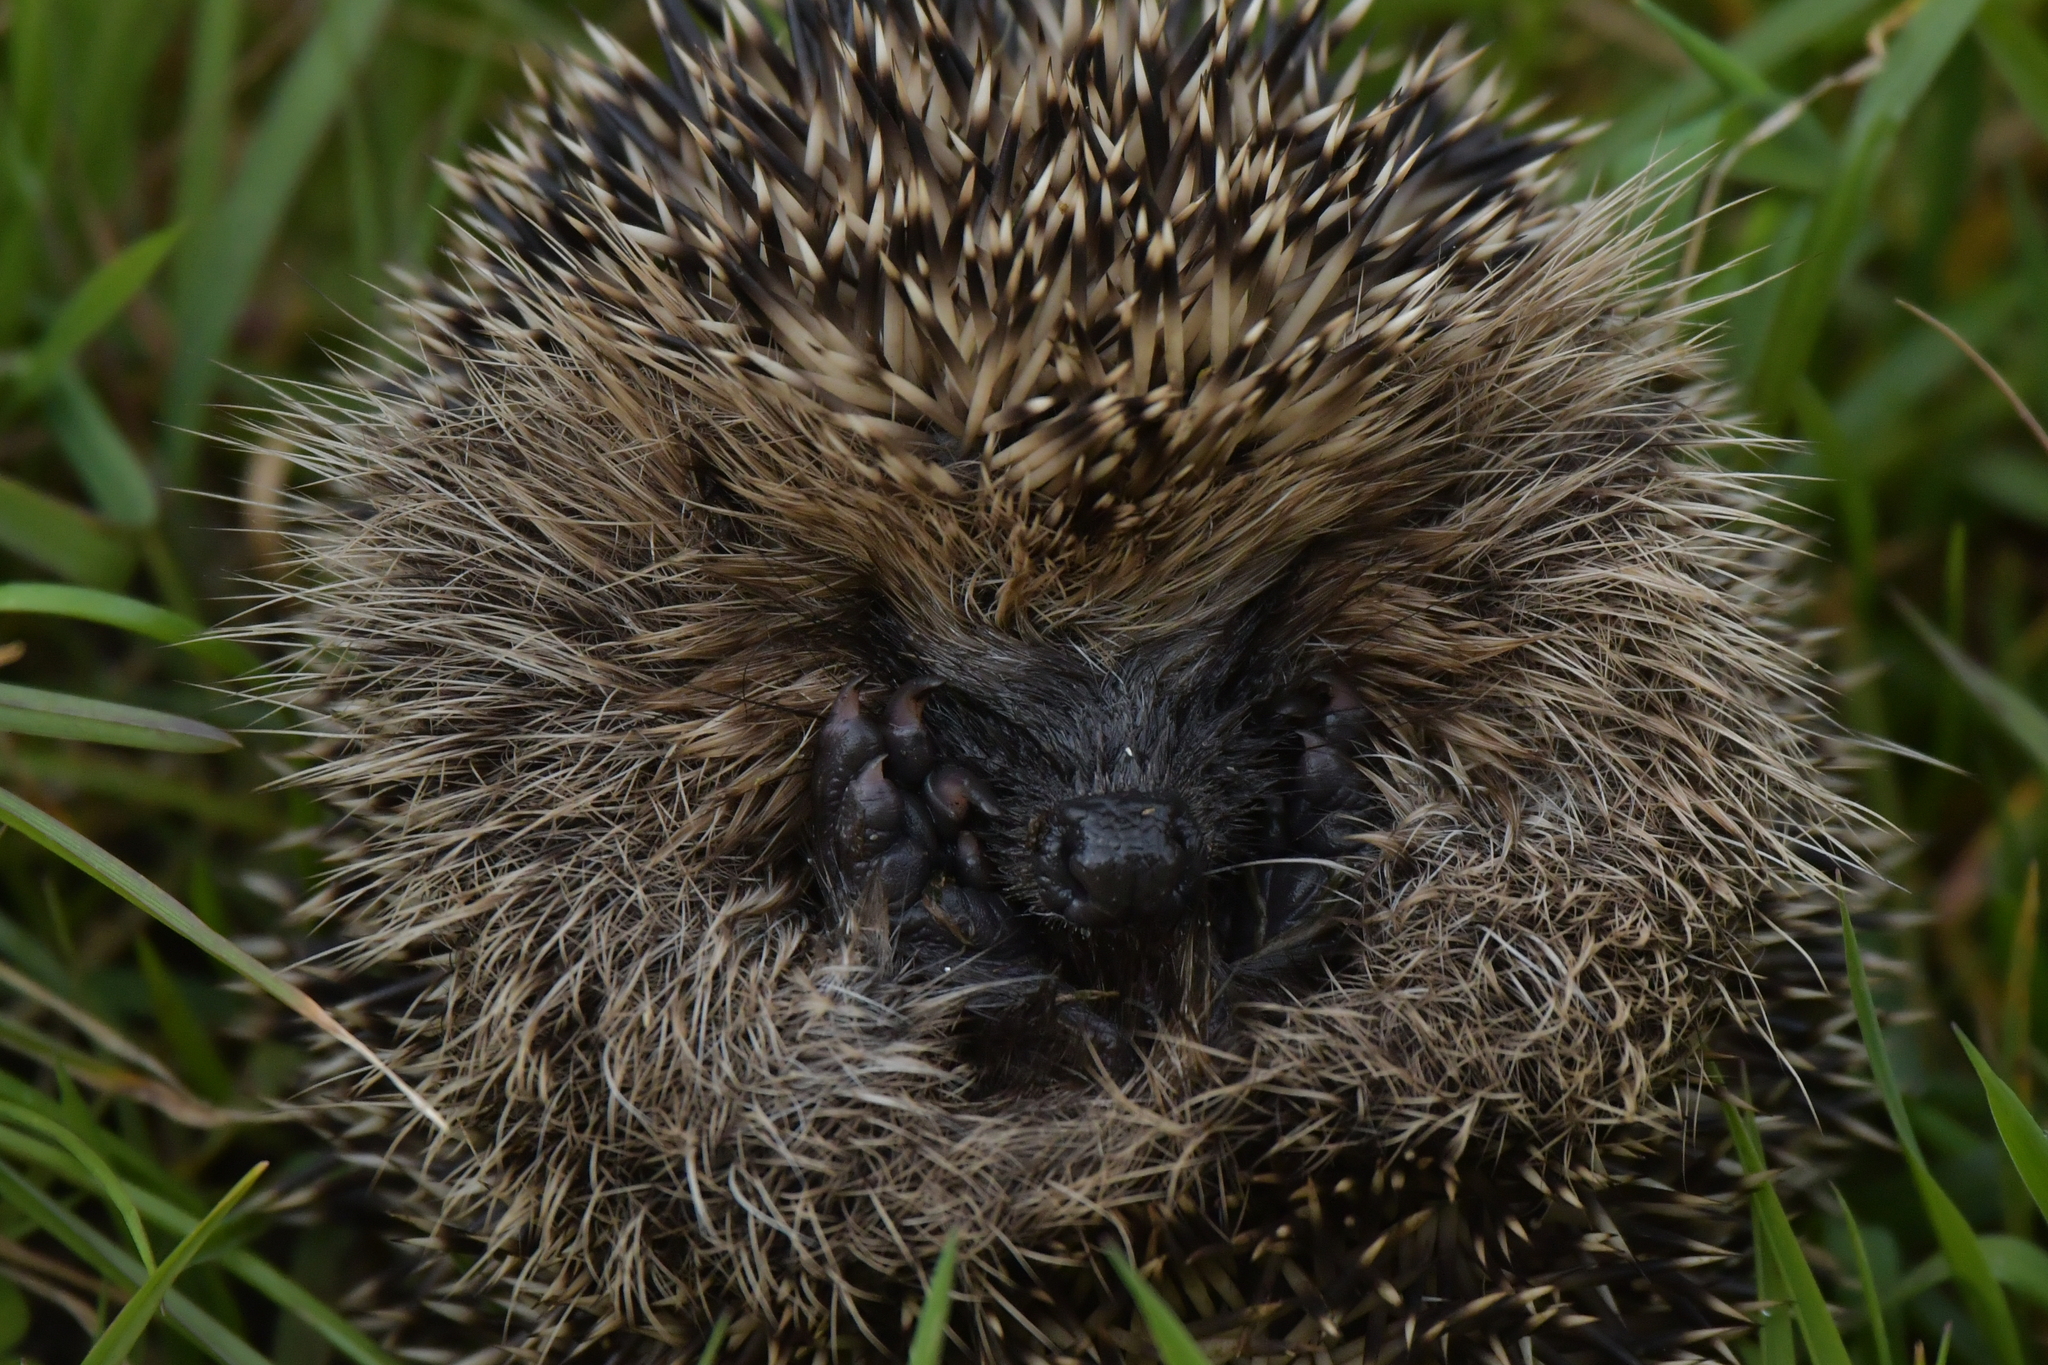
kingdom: Animalia
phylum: Chordata
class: Mammalia
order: Erinaceomorpha
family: Erinaceidae
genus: Erinaceus
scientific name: Erinaceus europaeus
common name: West european hedgehog
